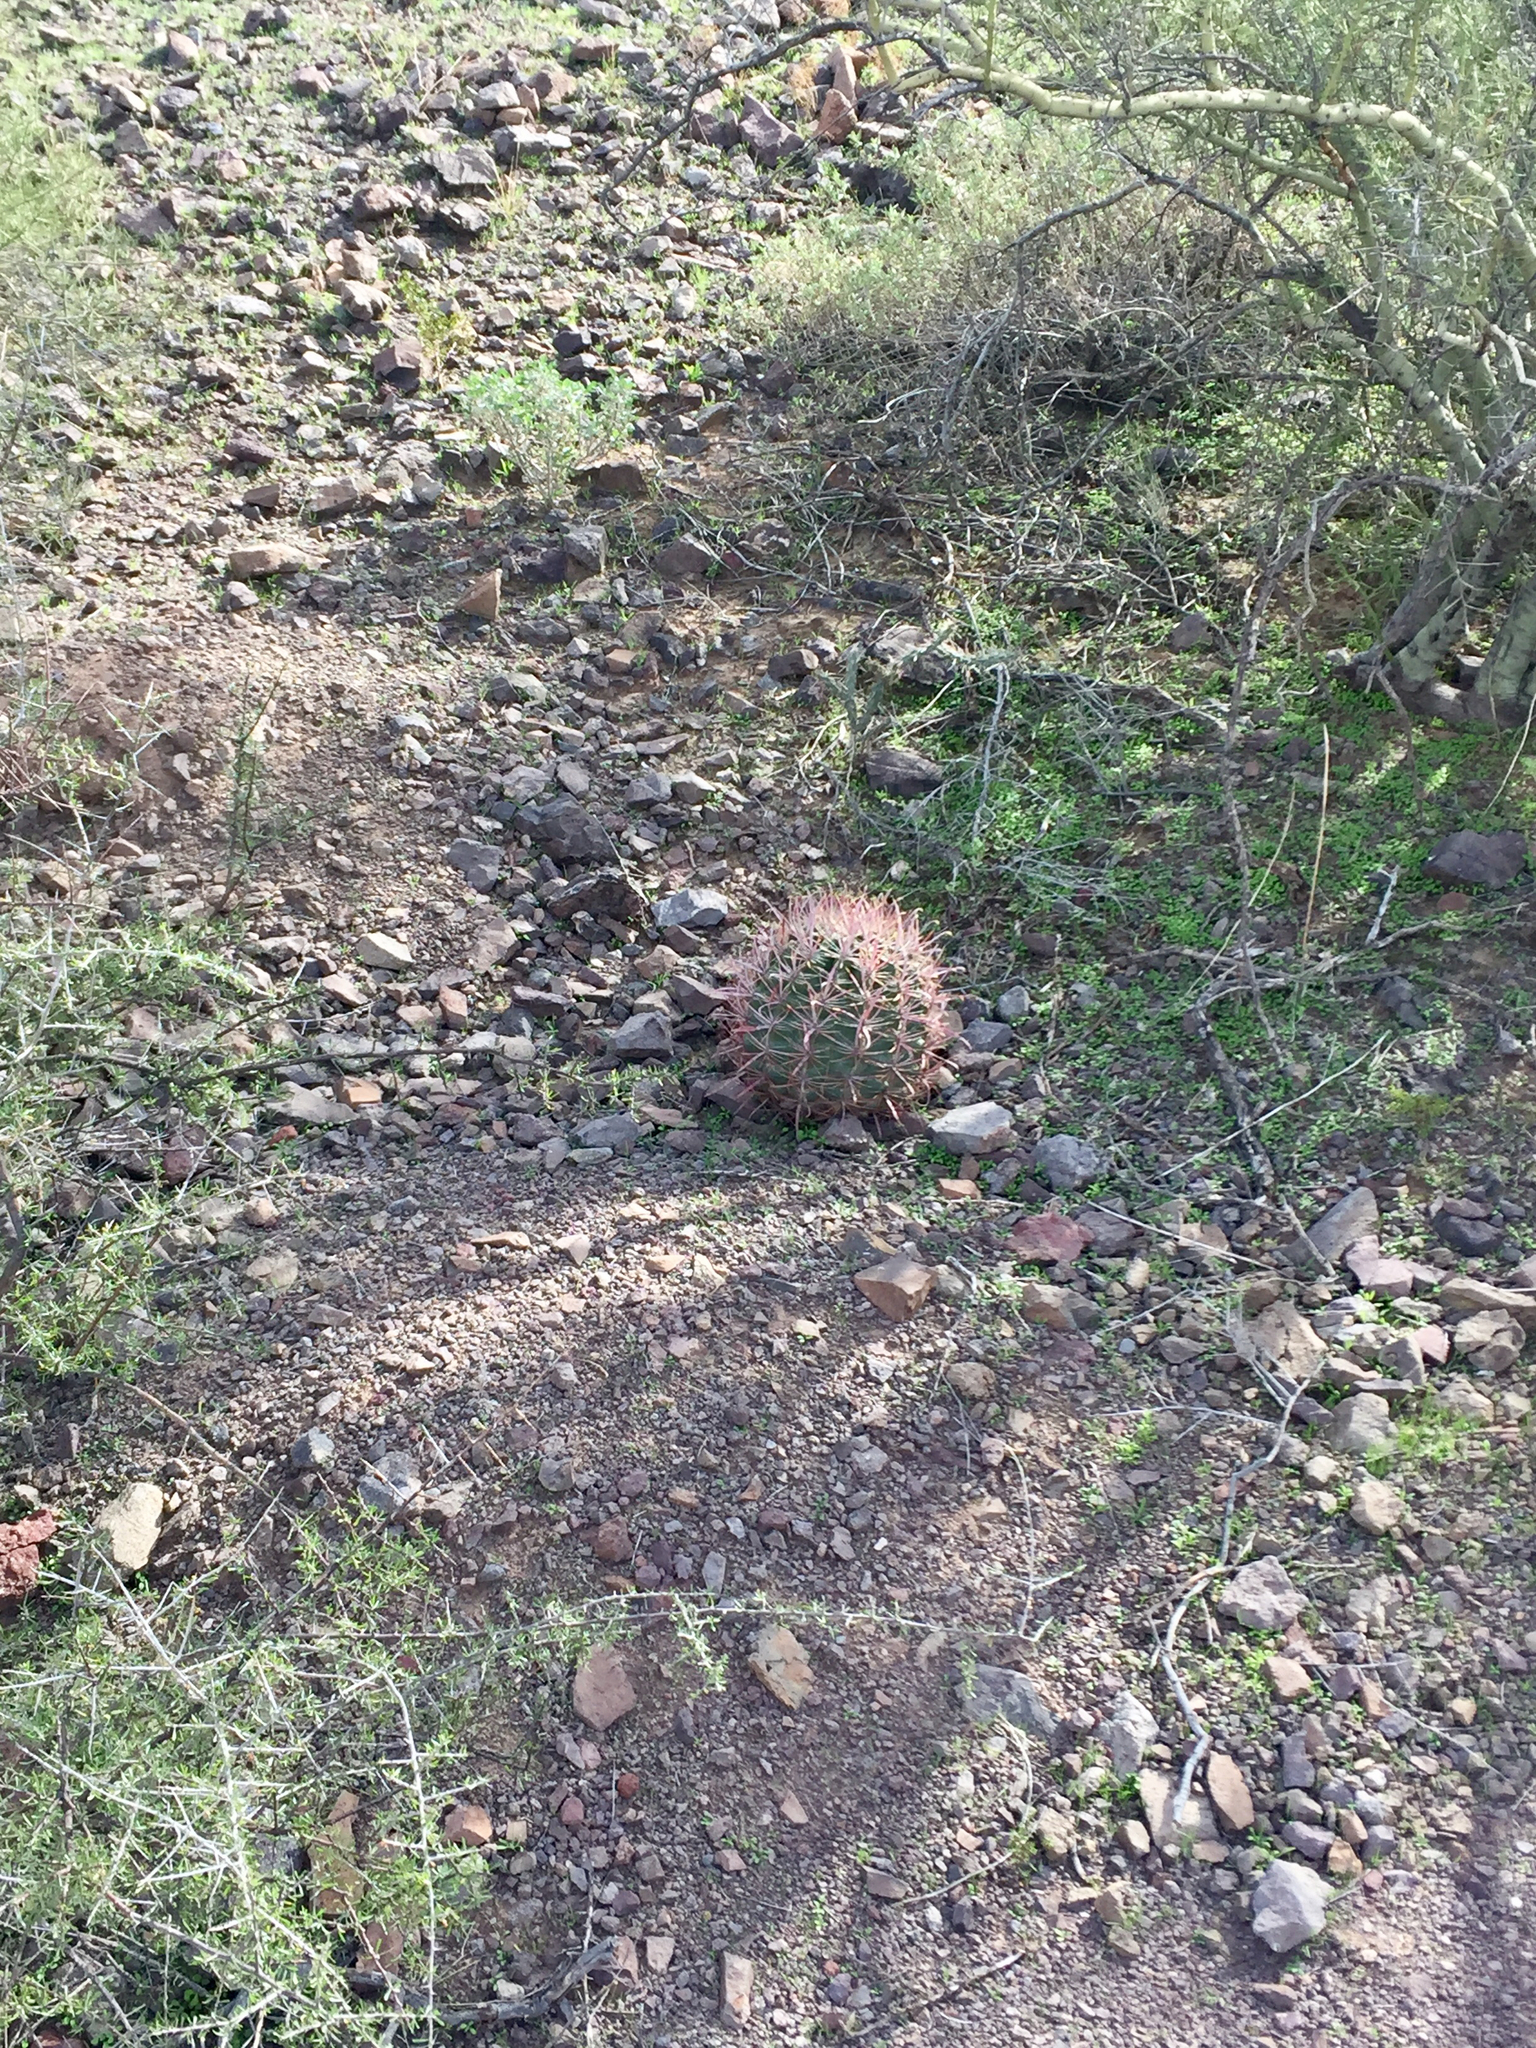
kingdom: Plantae
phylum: Tracheophyta
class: Magnoliopsida
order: Caryophyllales
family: Cactaceae
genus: Ferocactus
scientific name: Ferocactus wislizeni
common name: Candy barrel cactus
